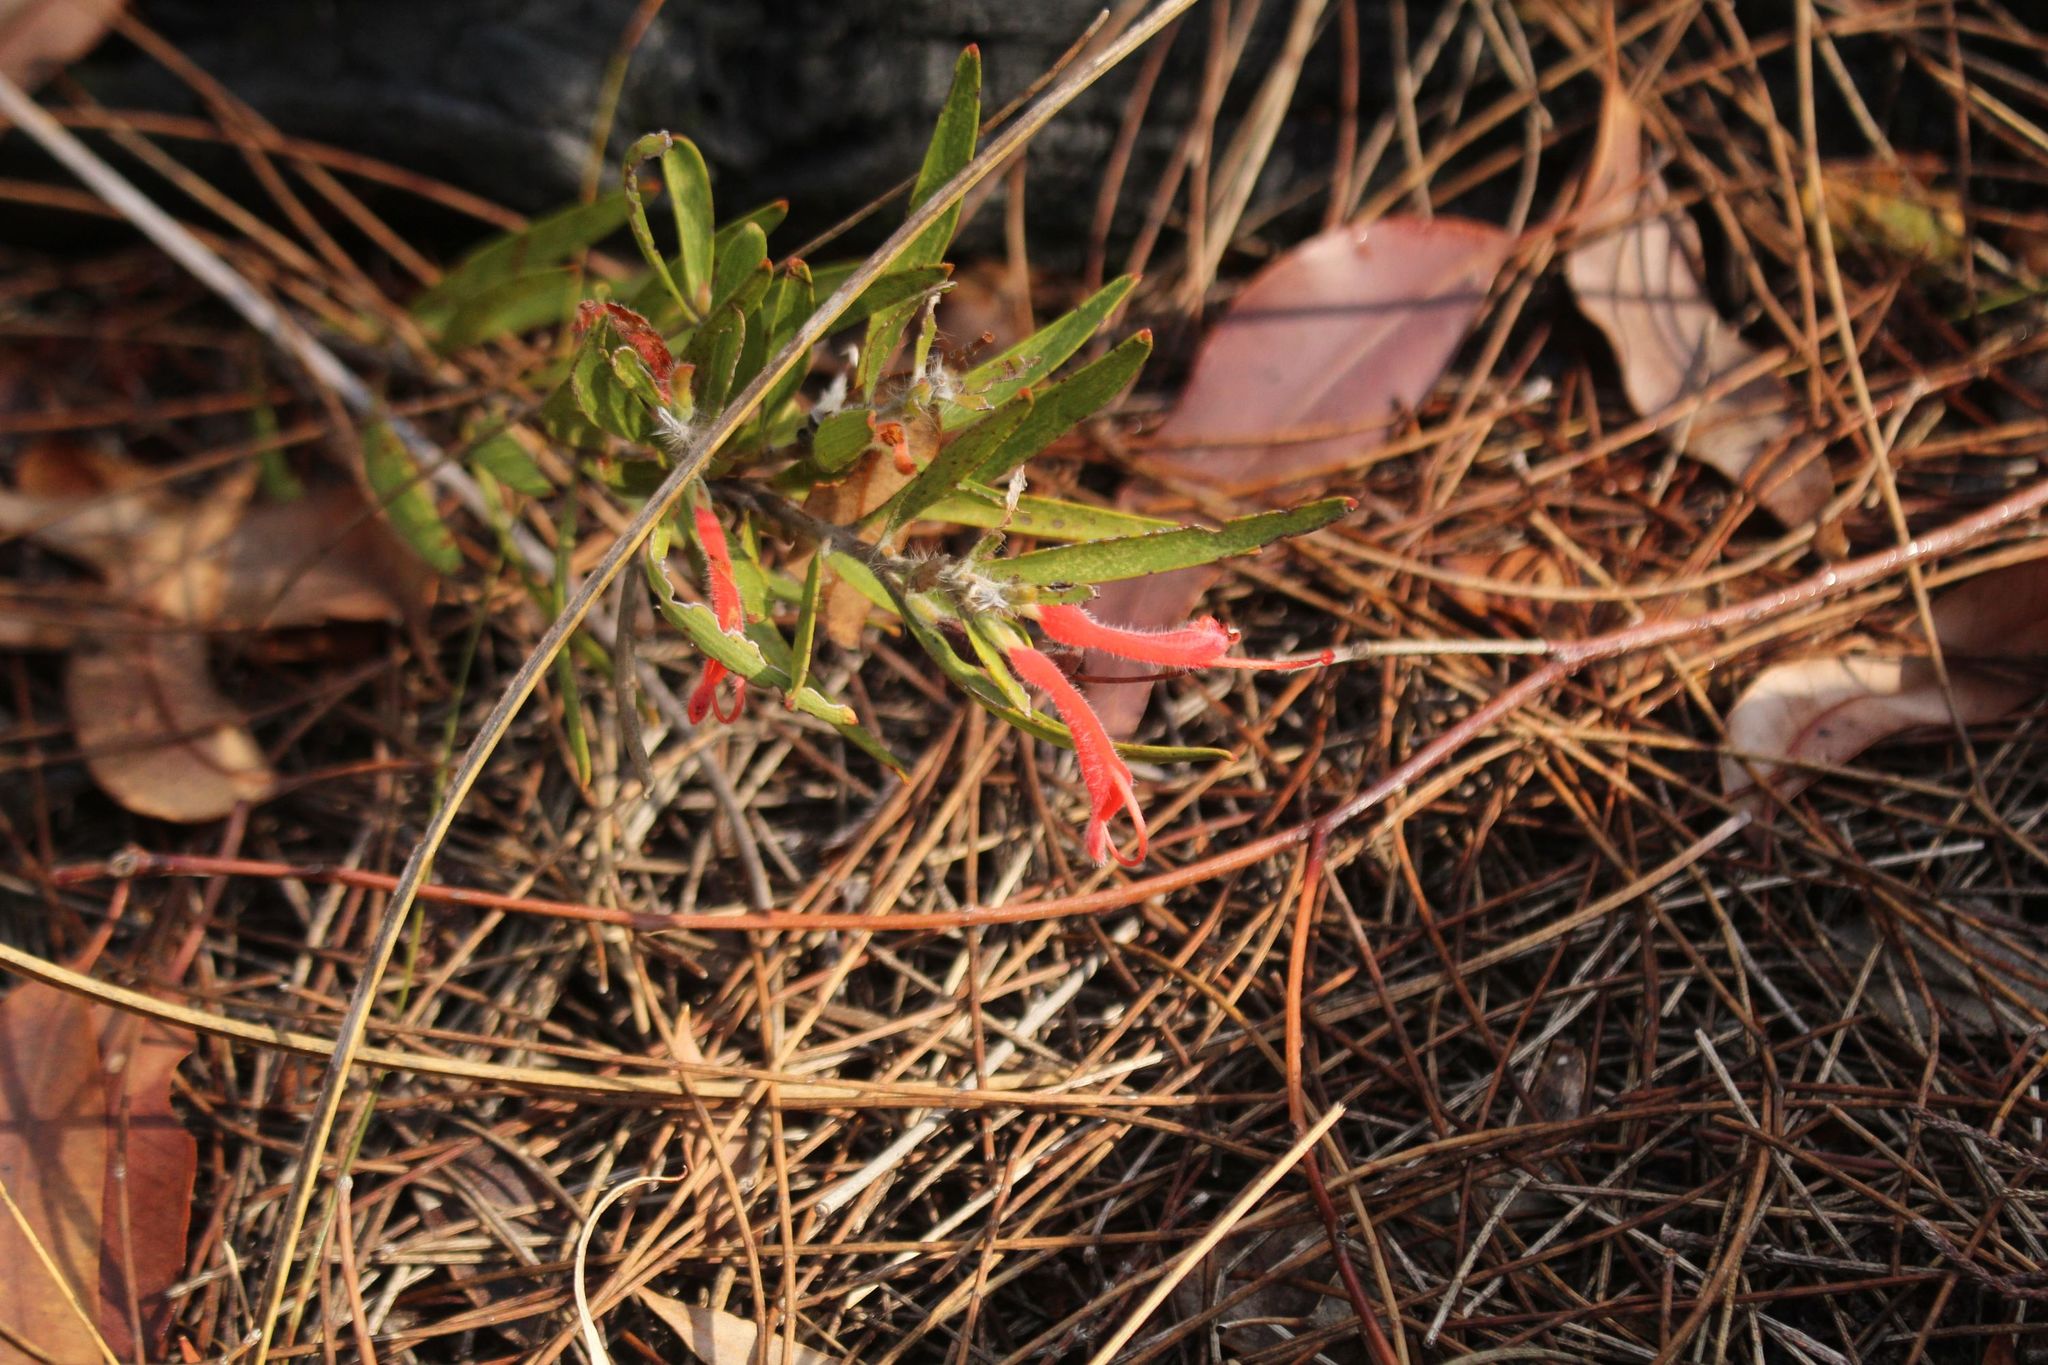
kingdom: Plantae
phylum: Tracheophyta
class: Magnoliopsida
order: Proteales
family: Proteaceae
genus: Adenanthos
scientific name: Adenanthos barbiger
